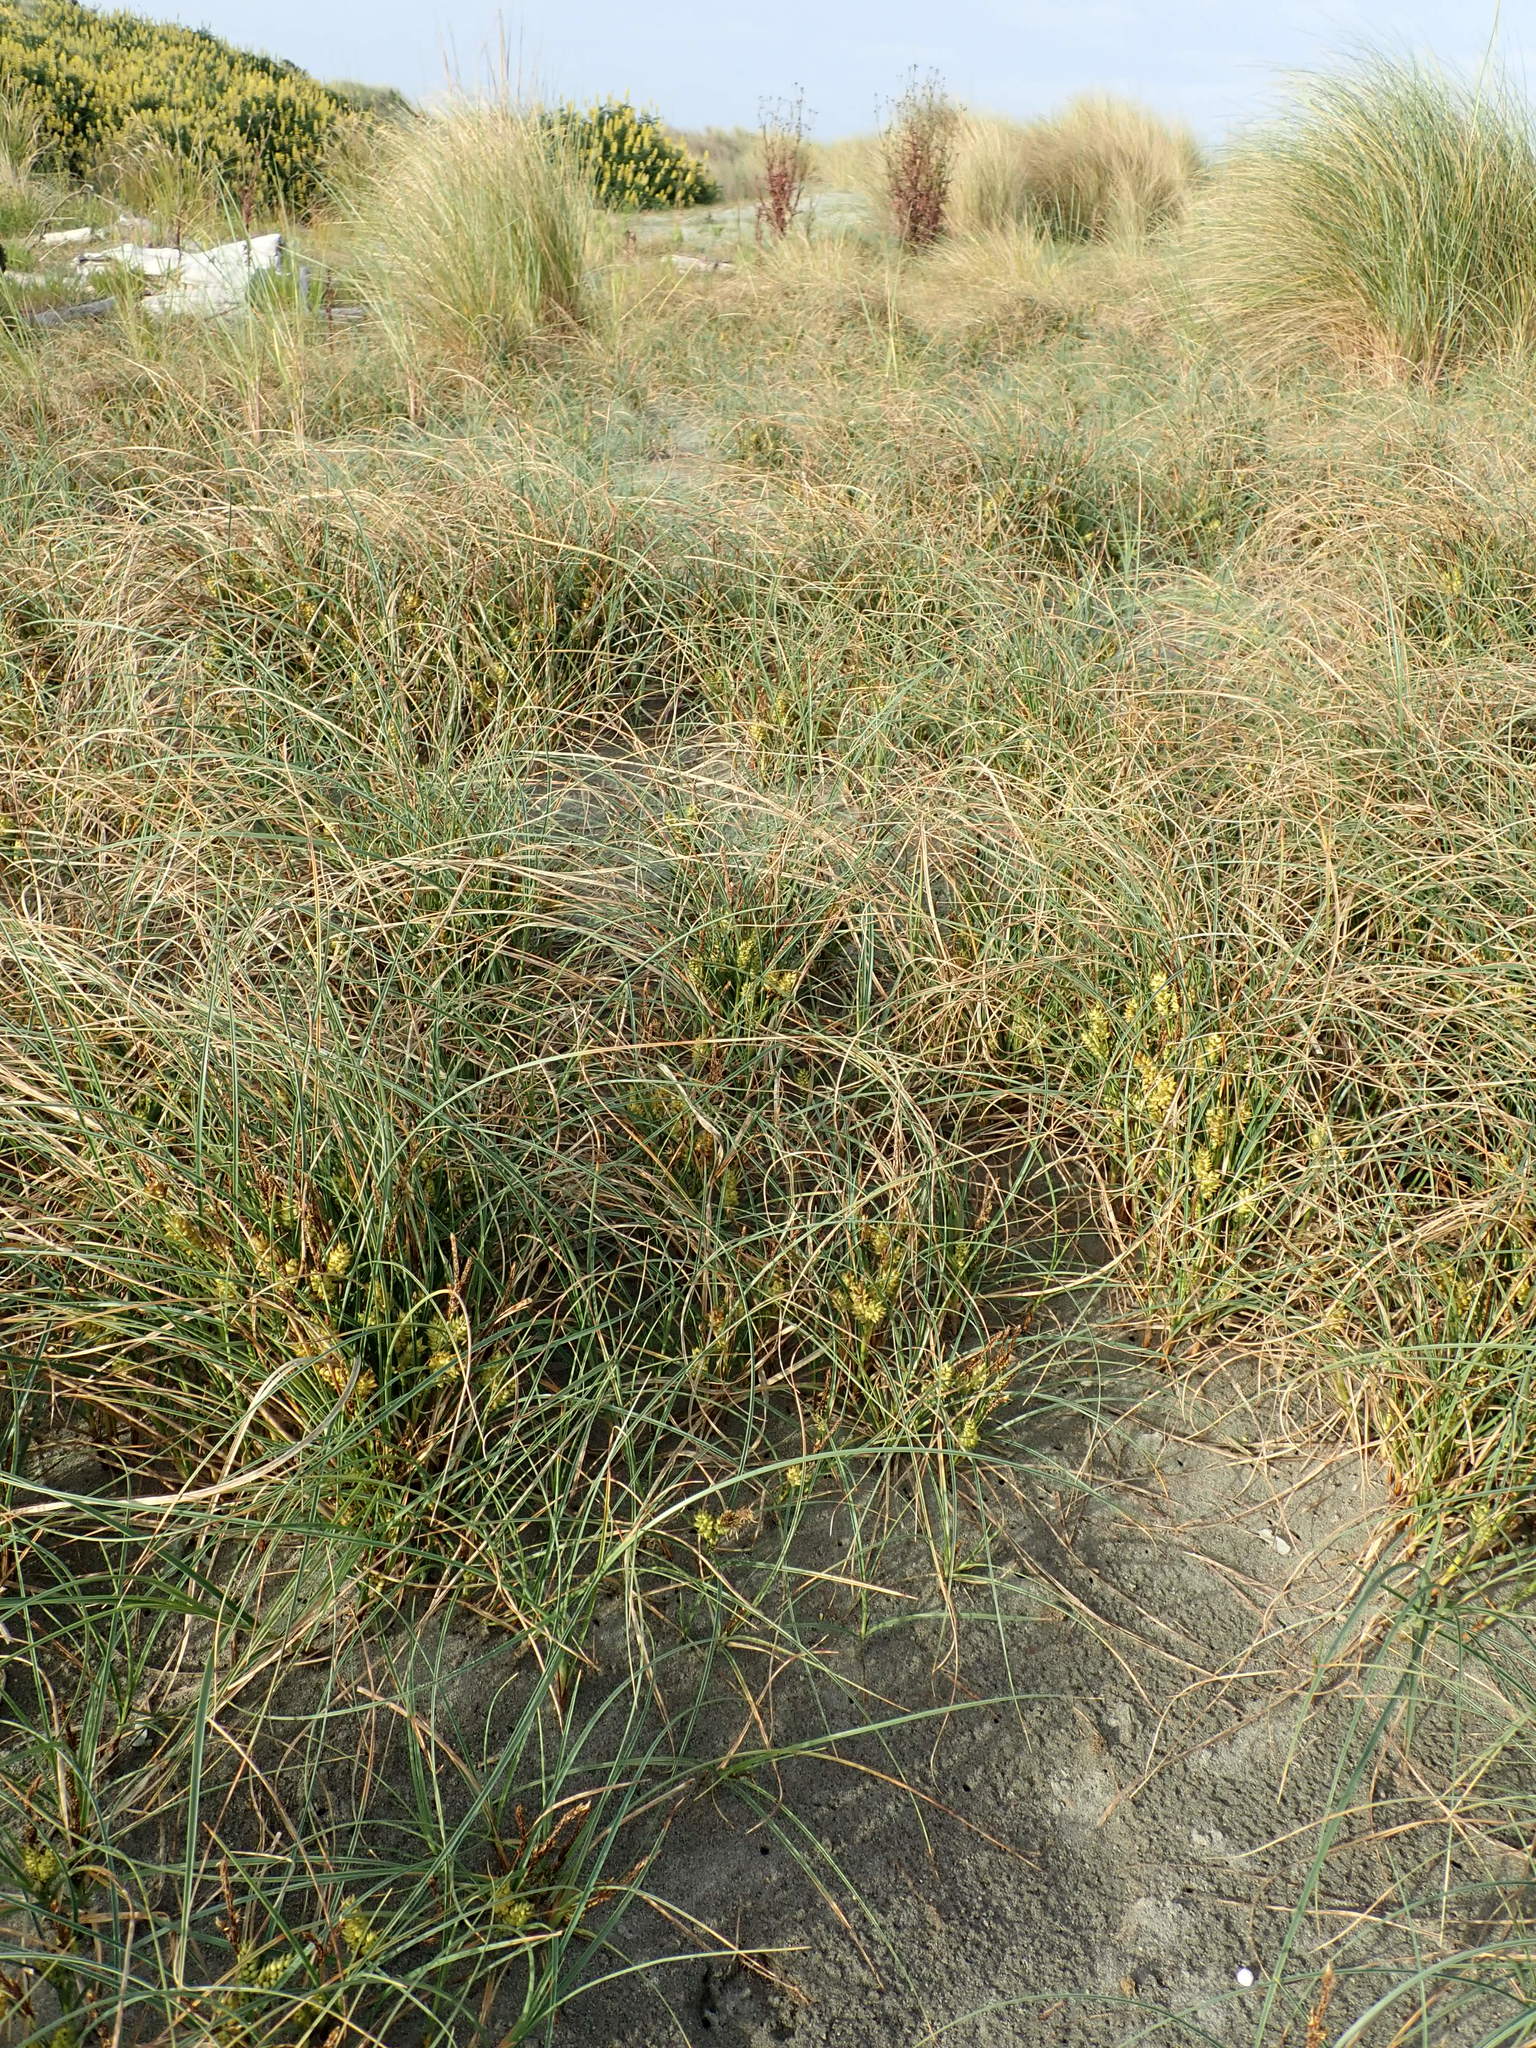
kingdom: Plantae
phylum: Tracheophyta
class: Liliopsida
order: Poales
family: Cyperaceae
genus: Carex
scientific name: Carex pumila
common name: Dwarf sedge
